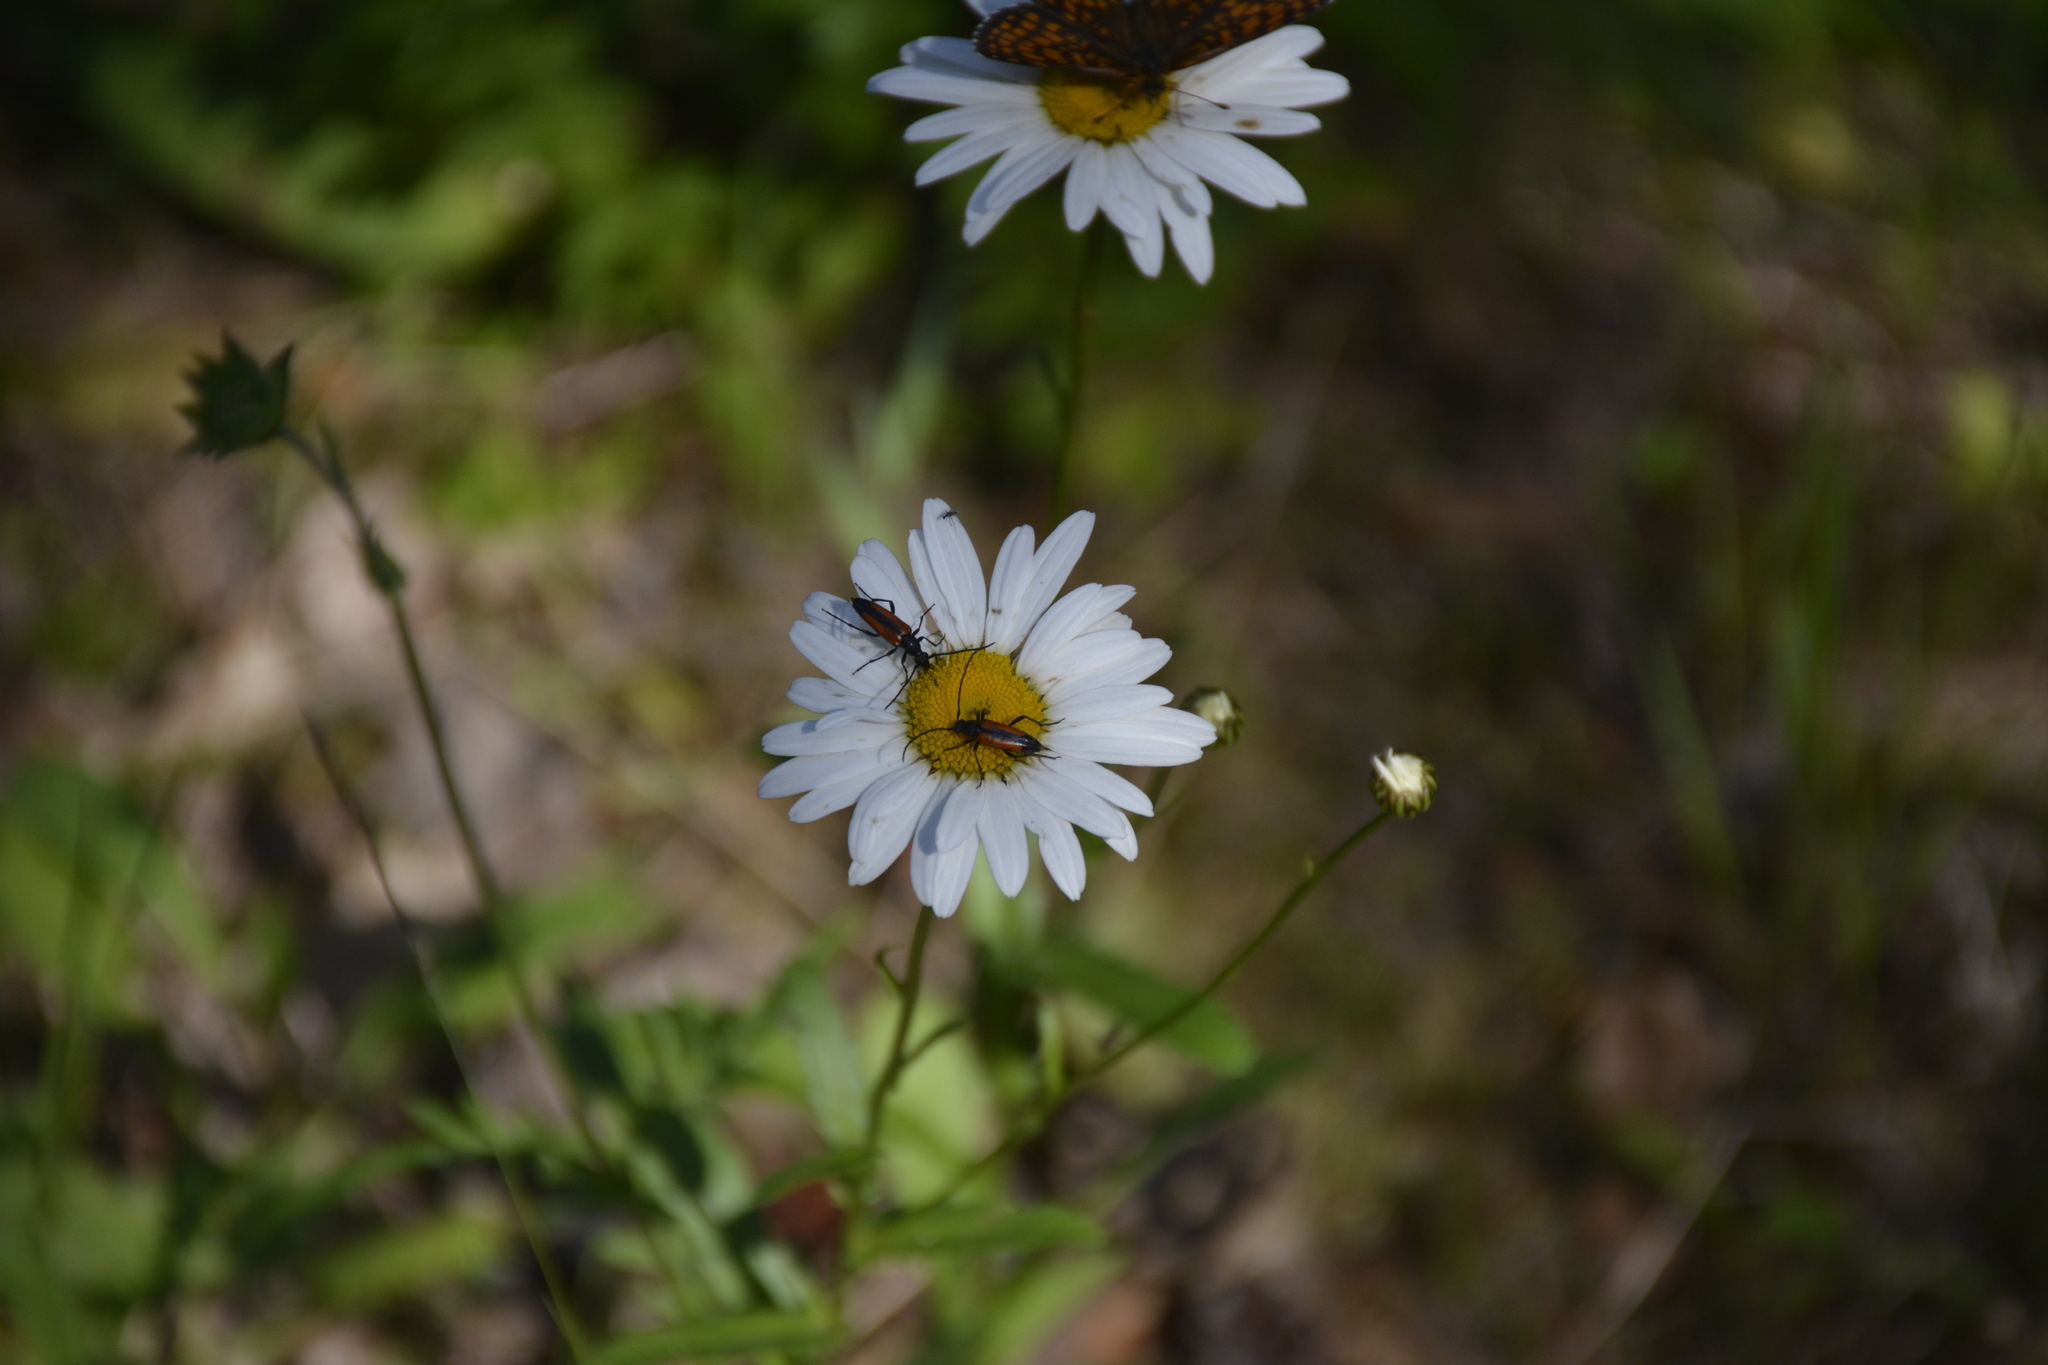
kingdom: Plantae
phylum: Tracheophyta
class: Magnoliopsida
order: Asterales
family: Asteraceae
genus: Leucanthemum
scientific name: Leucanthemum vulgare
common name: Oxeye daisy
